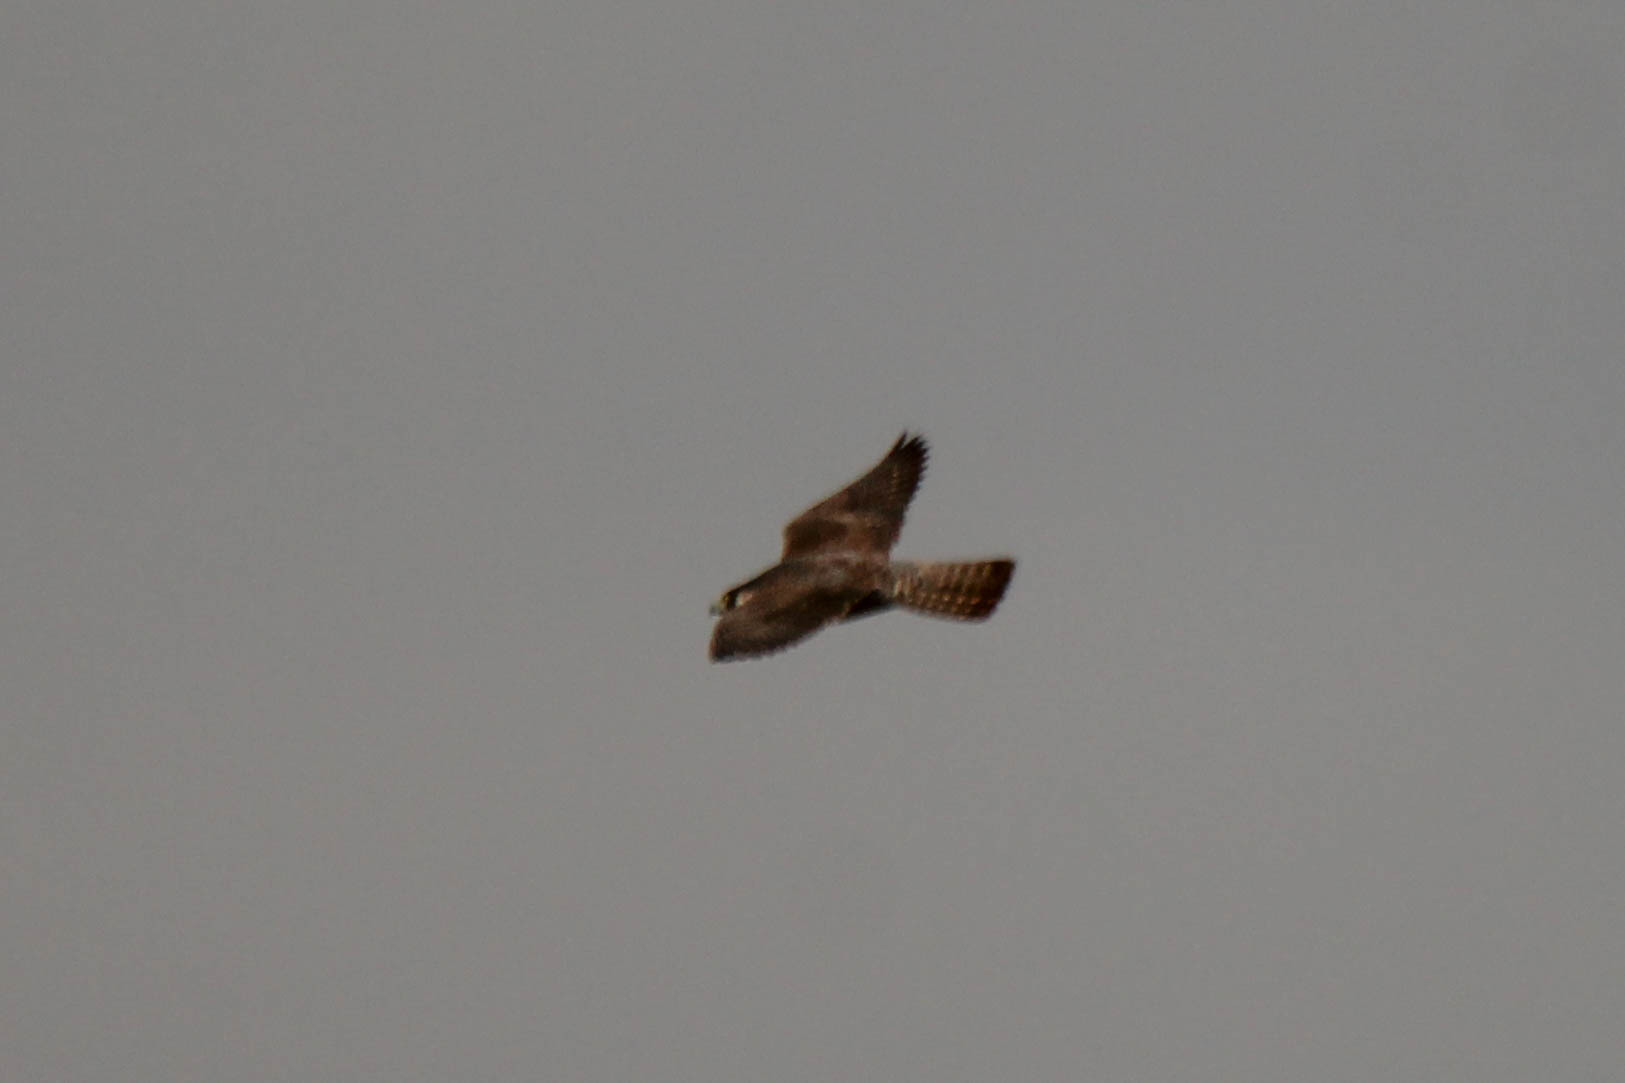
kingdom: Animalia
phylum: Chordata
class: Aves
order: Falconiformes
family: Falconidae
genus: Falco
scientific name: Falco peregrinus
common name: Peregrine falcon
